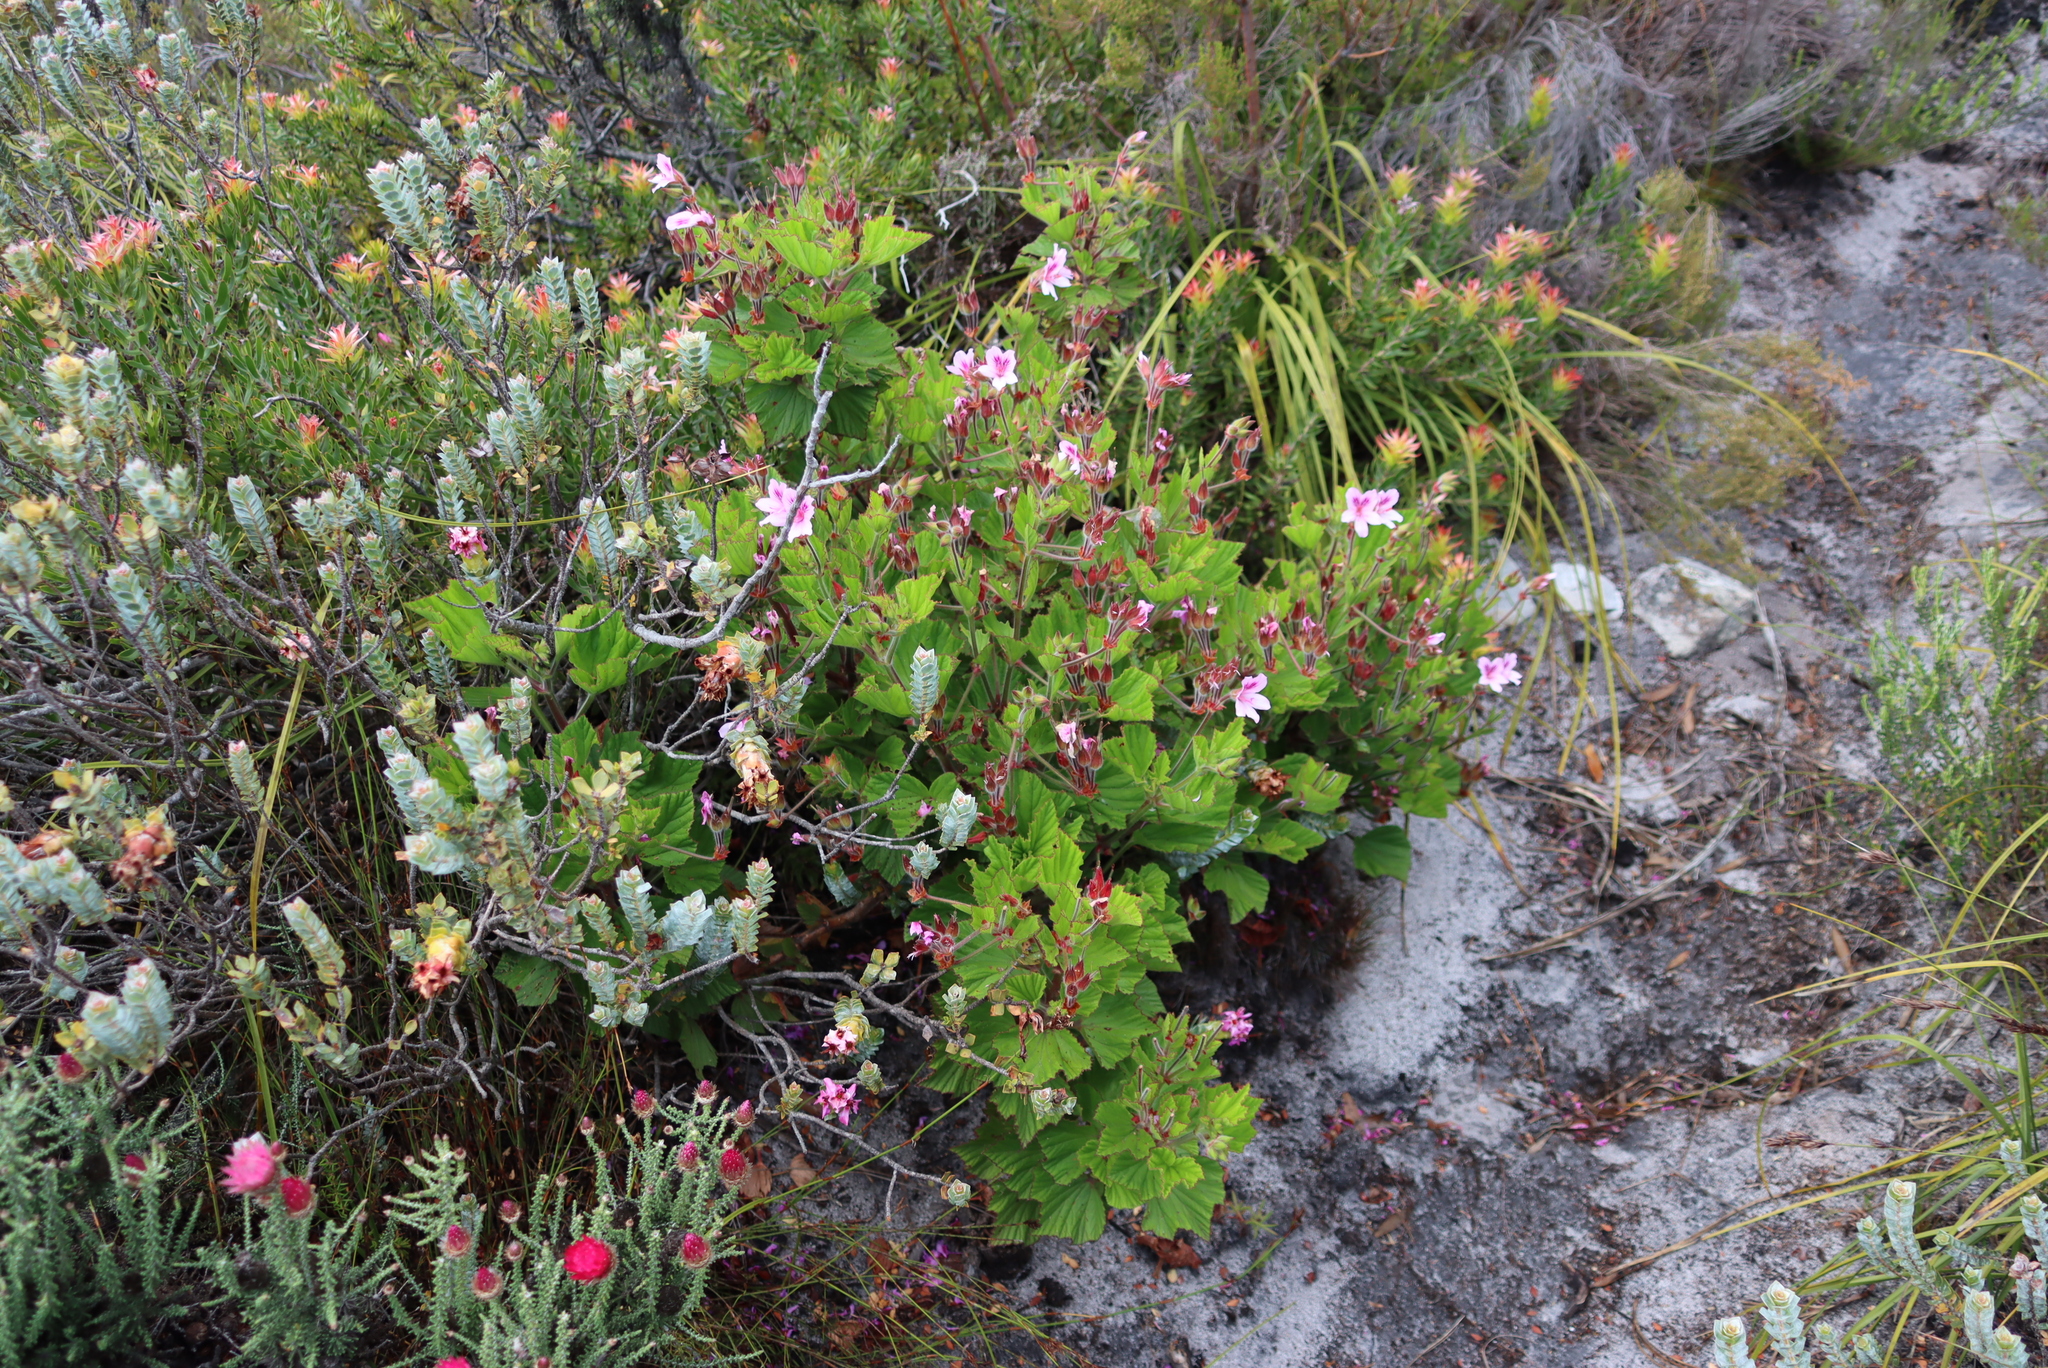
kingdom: Plantae
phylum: Tracheophyta
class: Magnoliopsida
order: Geraniales
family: Geraniaceae
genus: Pelargonium
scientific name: Pelargonium cucullatum
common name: Tree pelargonium
